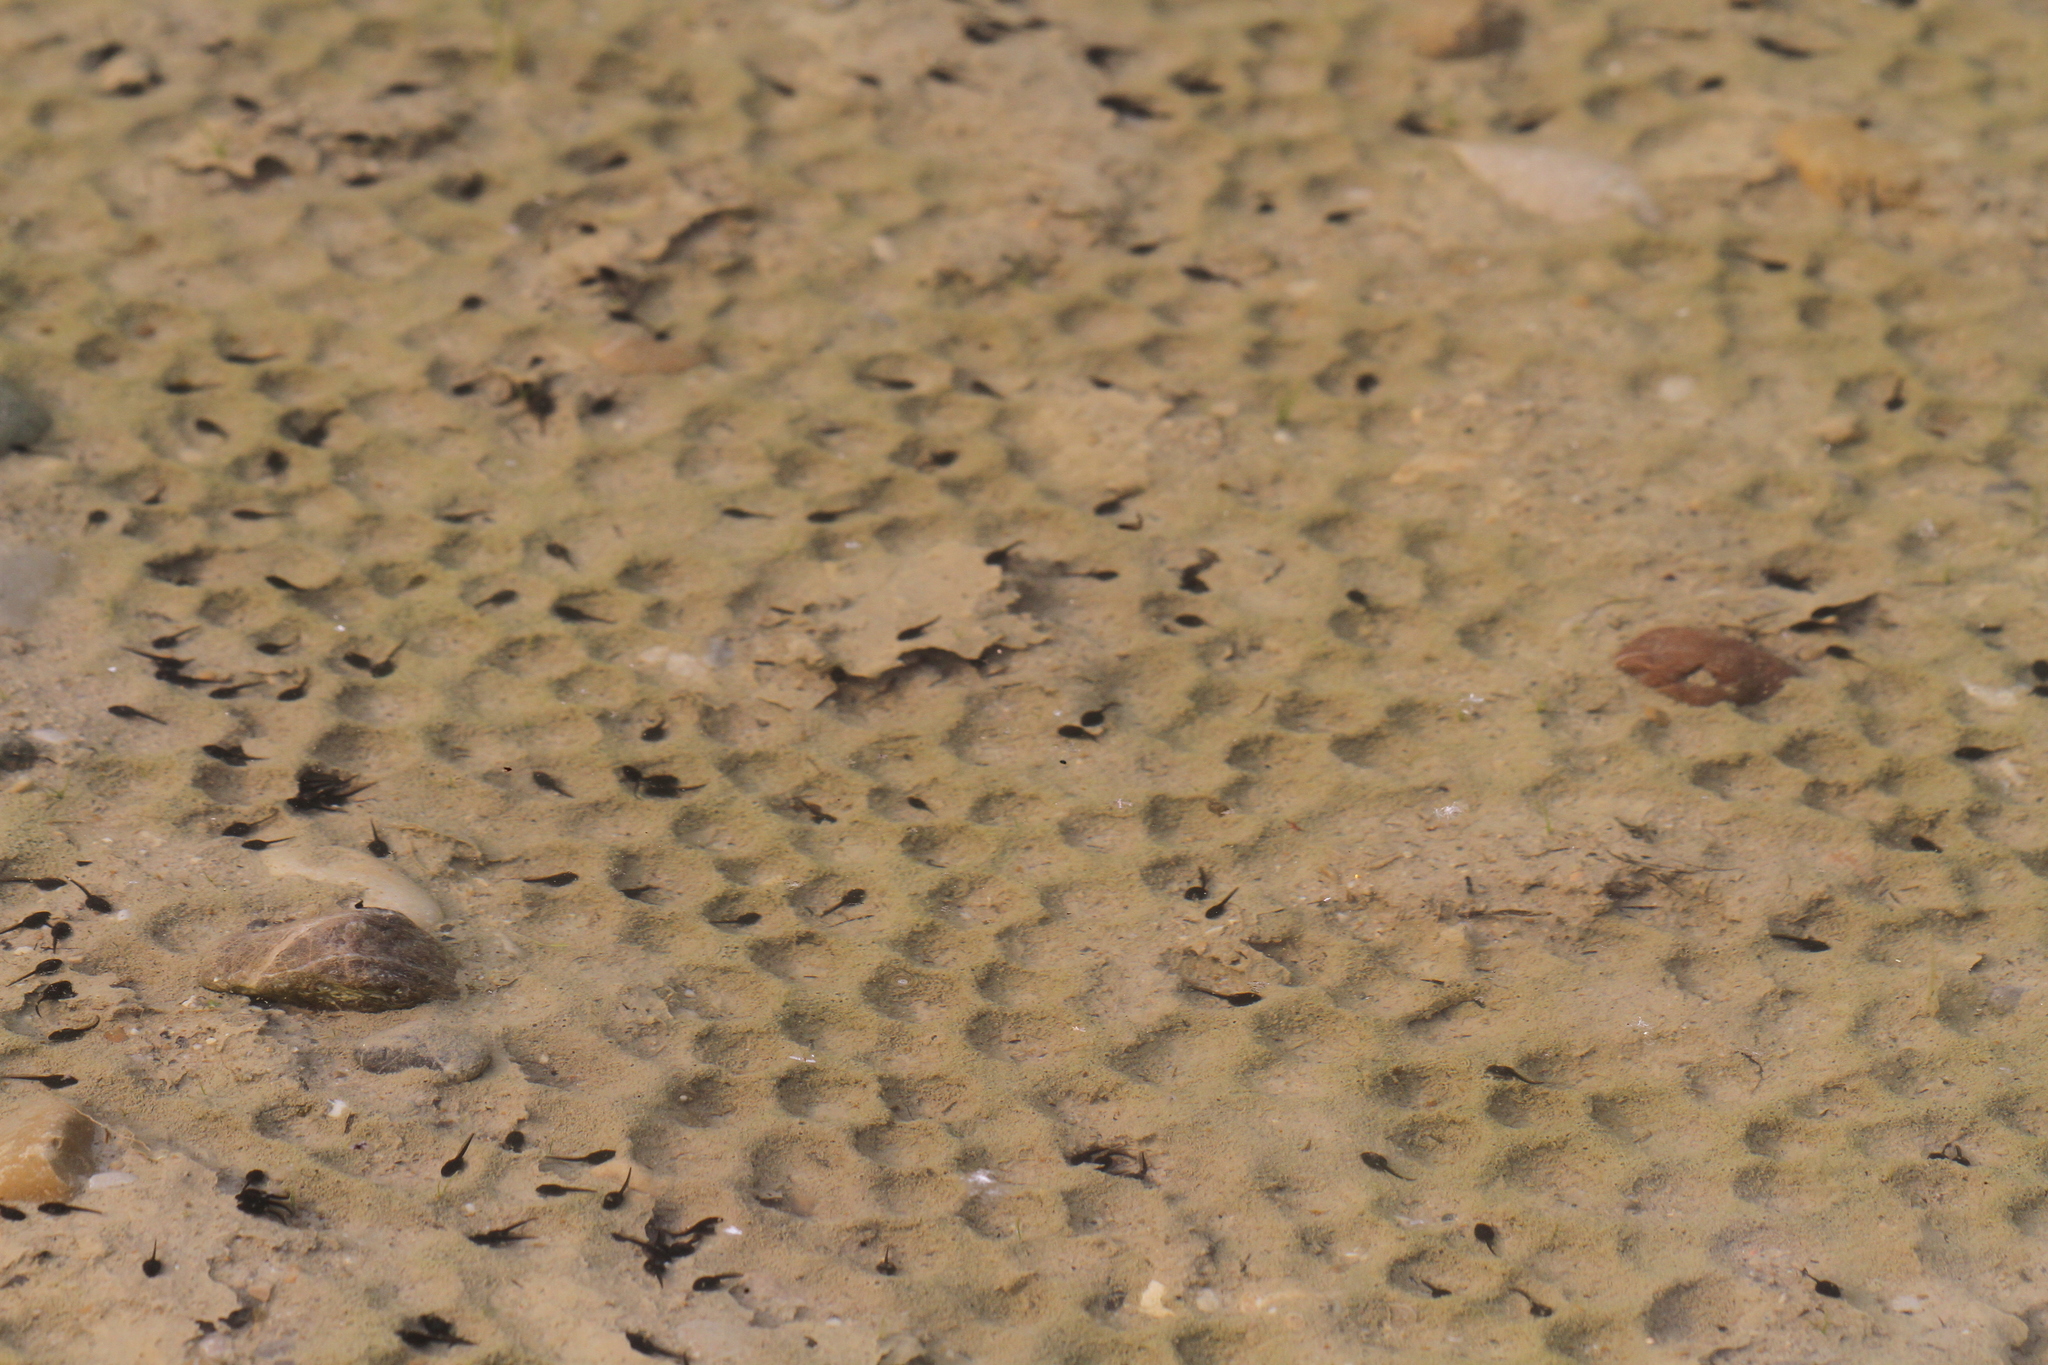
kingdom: Animalia
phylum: Chordata
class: Amphibia
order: Anura
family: Bufonidae
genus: Bufotes
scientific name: Bufotes viridis
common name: European green toad
